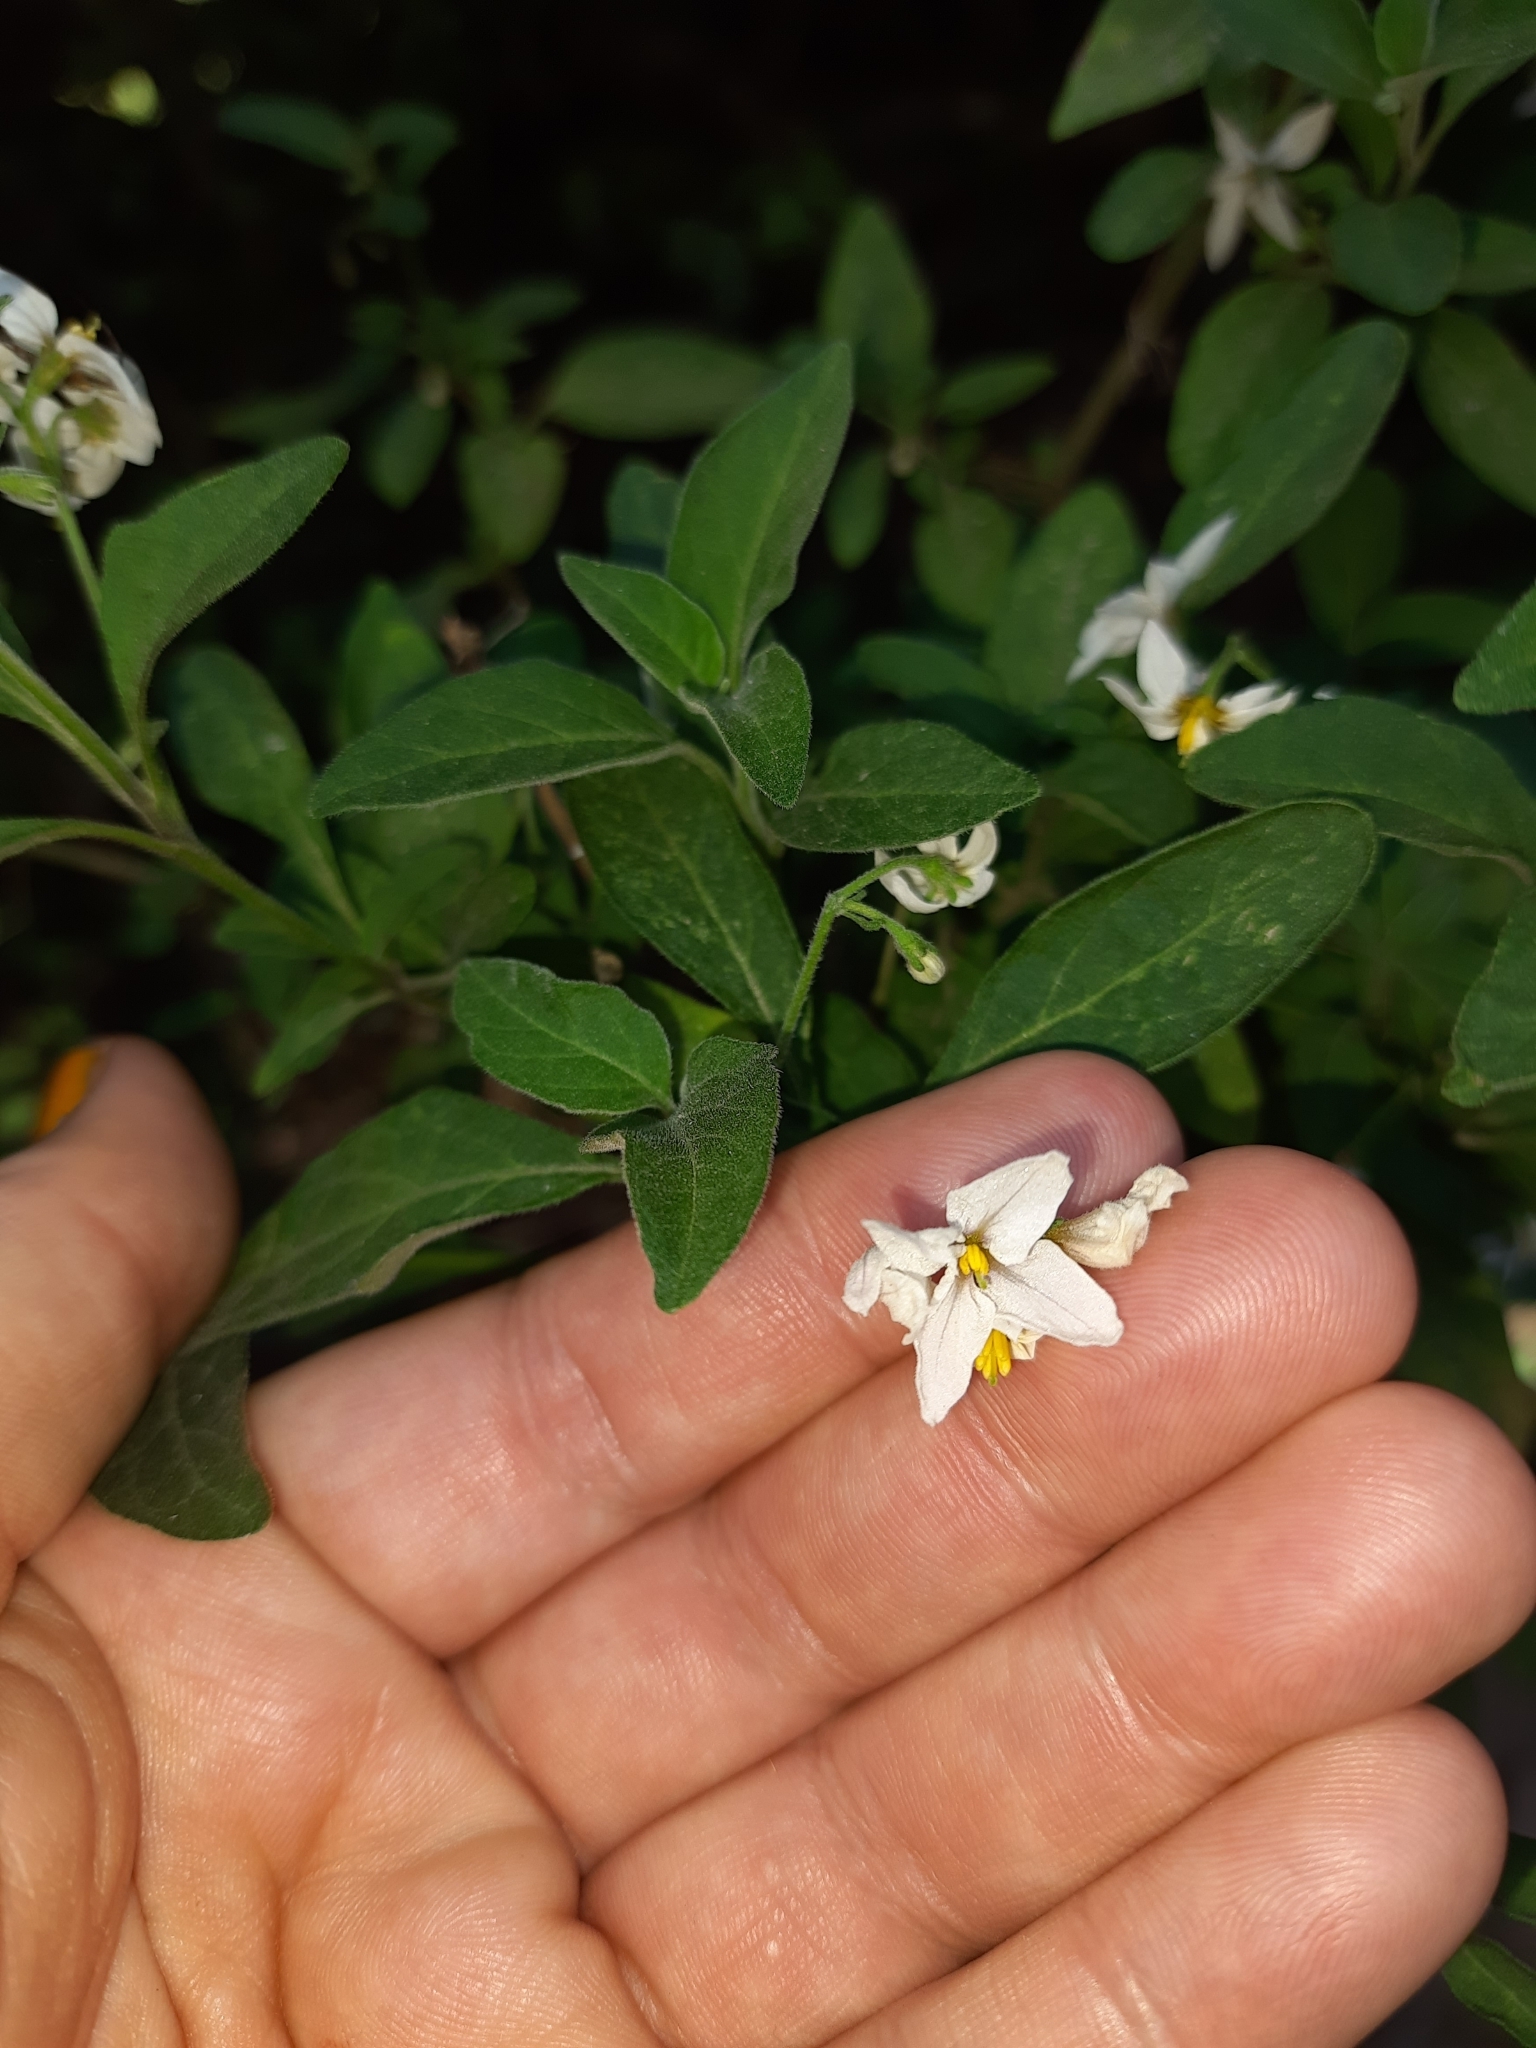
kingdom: Plantae
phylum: Tracheophyta
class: Magnoliopsida
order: Solanales
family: Solanaceae
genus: Solanum
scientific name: Solanum chenopodioides
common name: Tall nightshade
